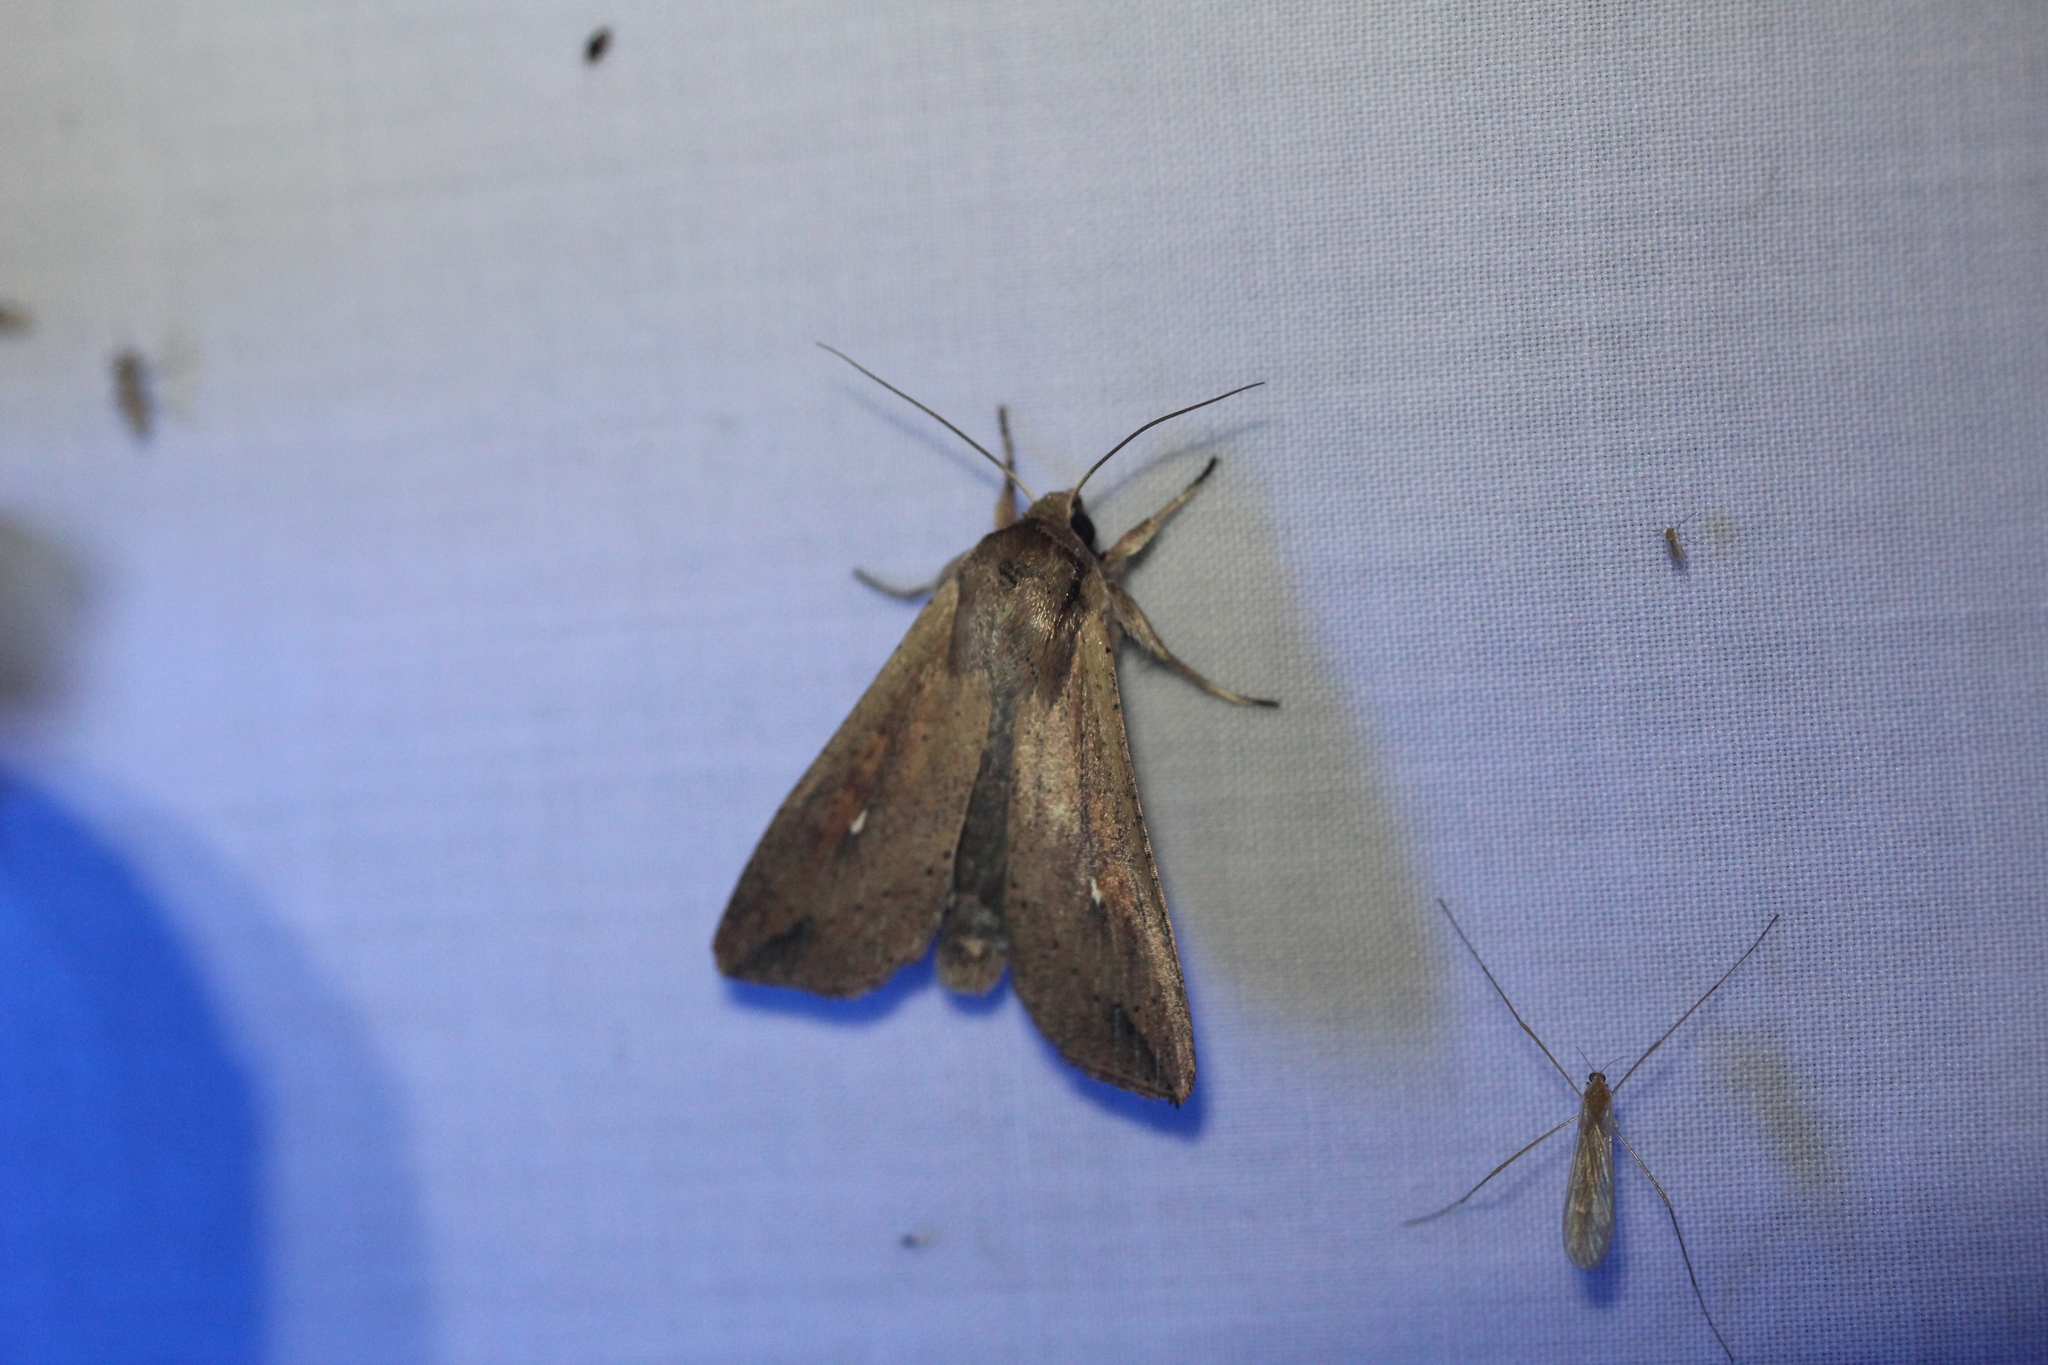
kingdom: Animalia
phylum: Arthropoda
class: Insecta
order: Lepidoptera
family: Noctuidae
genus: Mythimna
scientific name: Mythimna unipuncta
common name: White-speck
